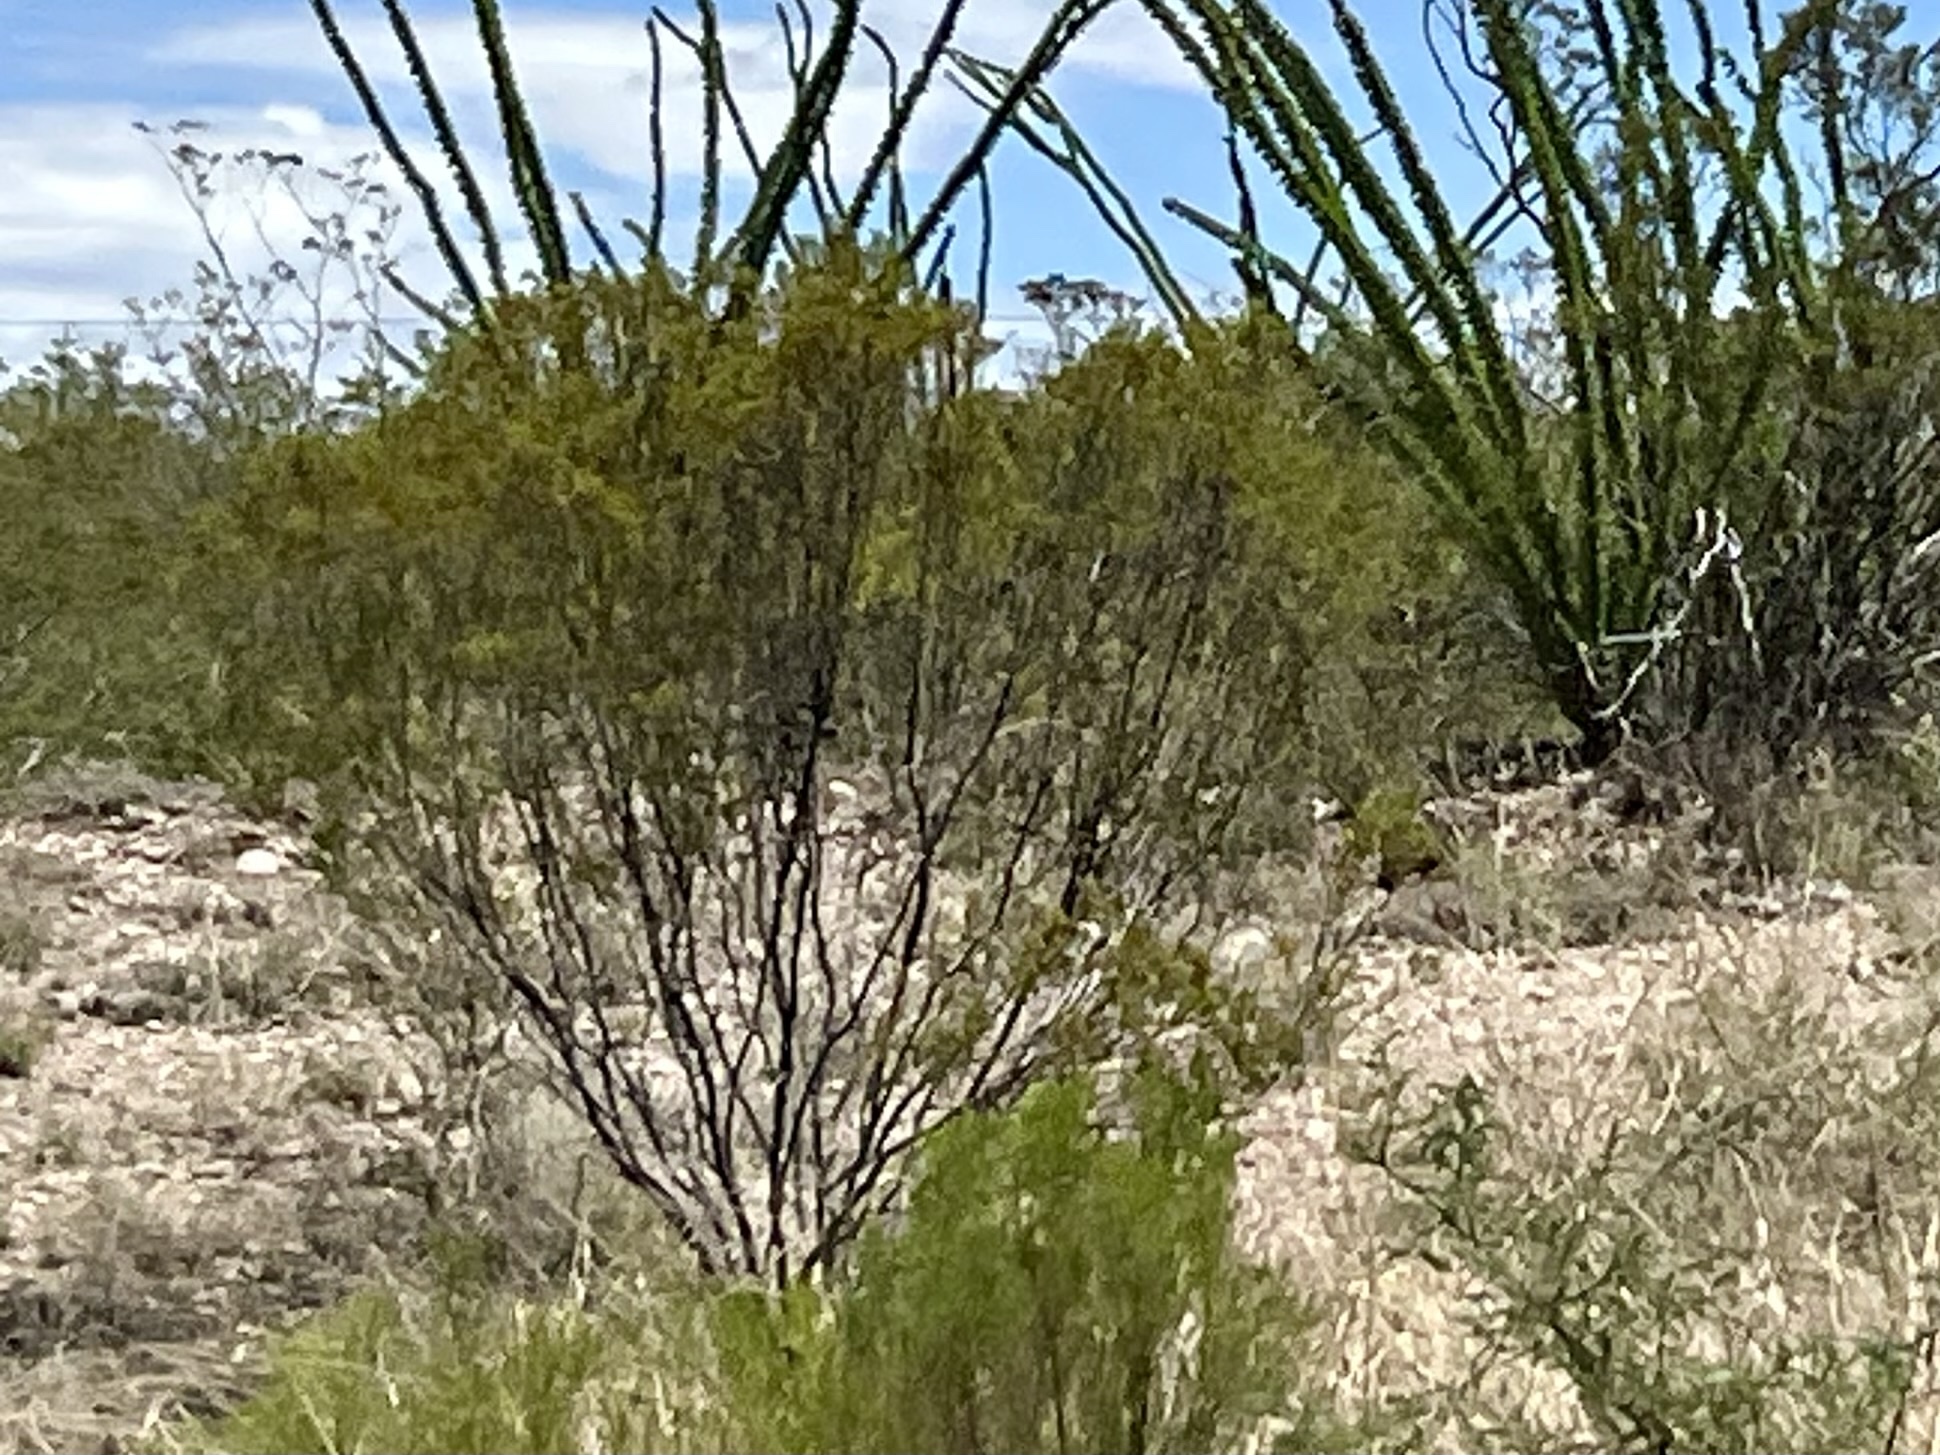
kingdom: Plantae
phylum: Tracheophyta
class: Magnoliopsida
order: Zygophyllales
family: Zygophyllaceae
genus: Larrea
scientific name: Larrea tridentata
